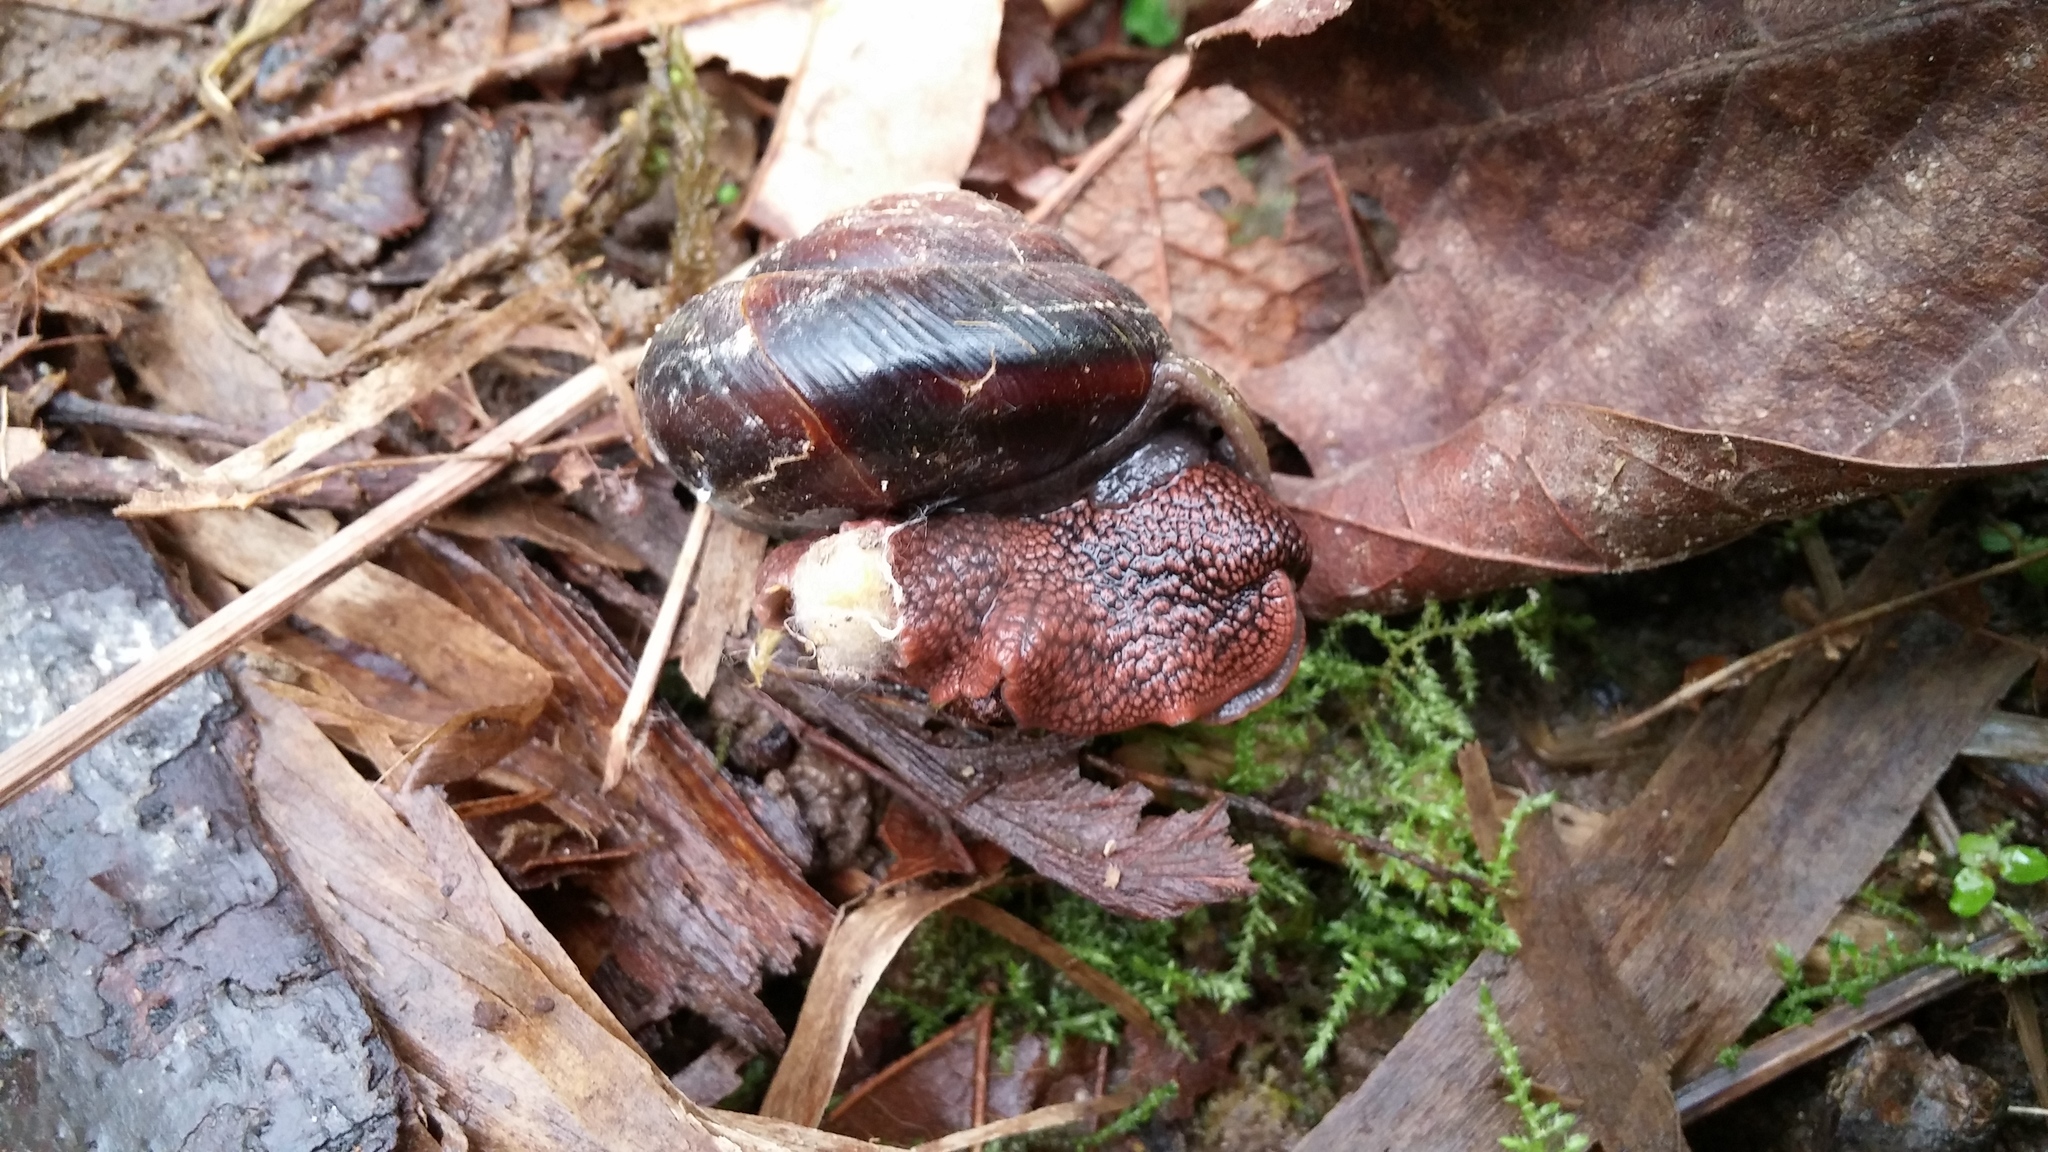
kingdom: Animalia
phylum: Mollusca
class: Gastropoda
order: Stylommatophora
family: Xanthonychidae
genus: Monadenia
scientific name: Monadenia fidelis
